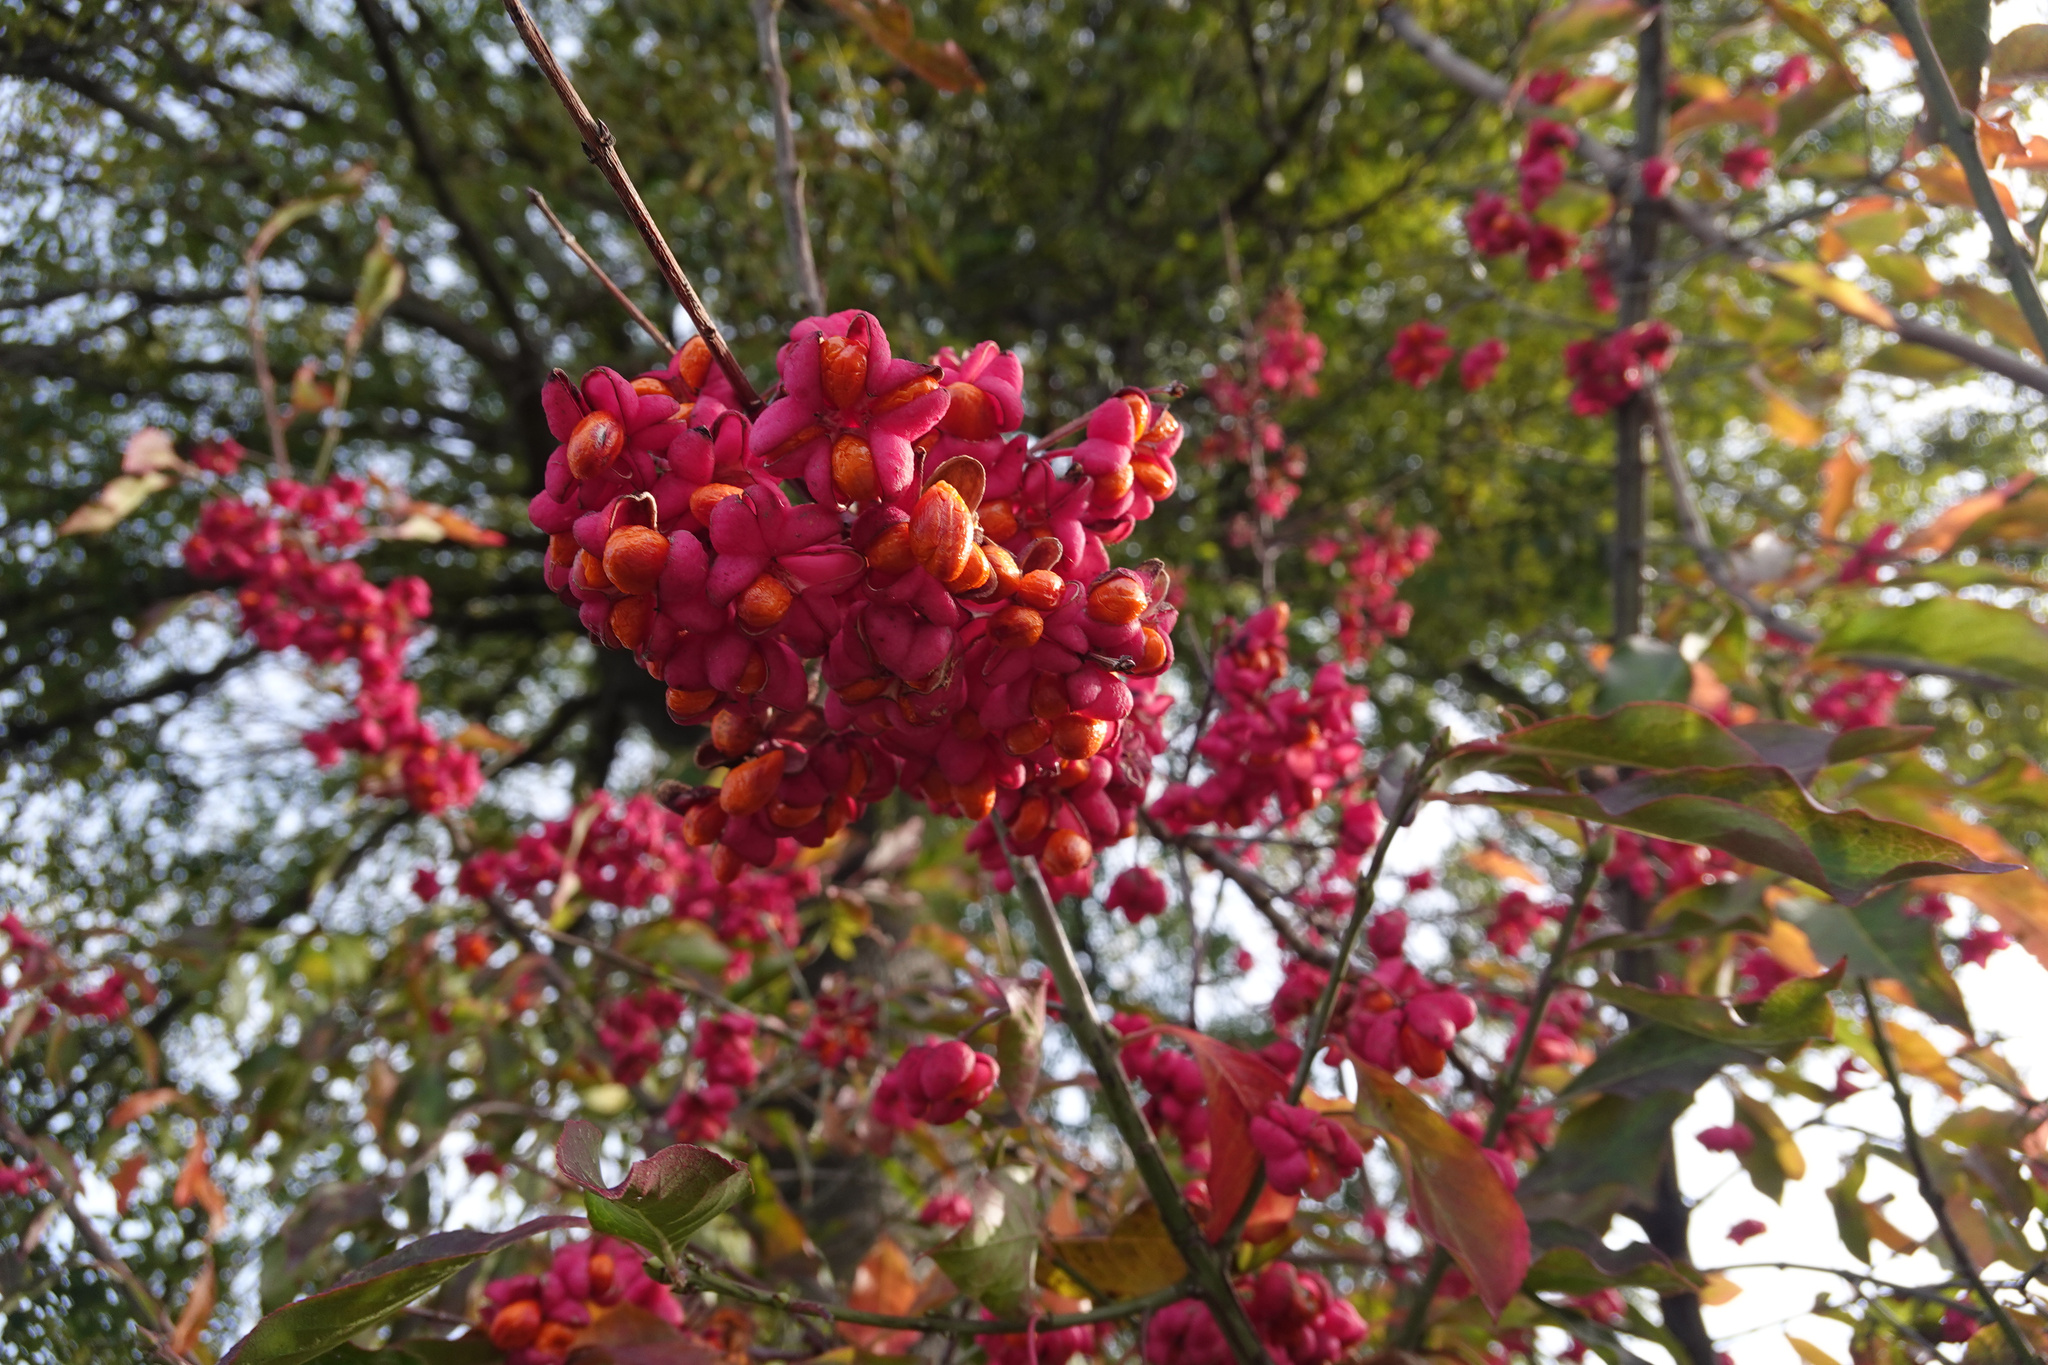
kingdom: Plantae
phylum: Tracheophyta
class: Magnoliopsida
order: Celastrales
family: Celastraceae
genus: Euonymus
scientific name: Euonymus europaeus
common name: Spindle
